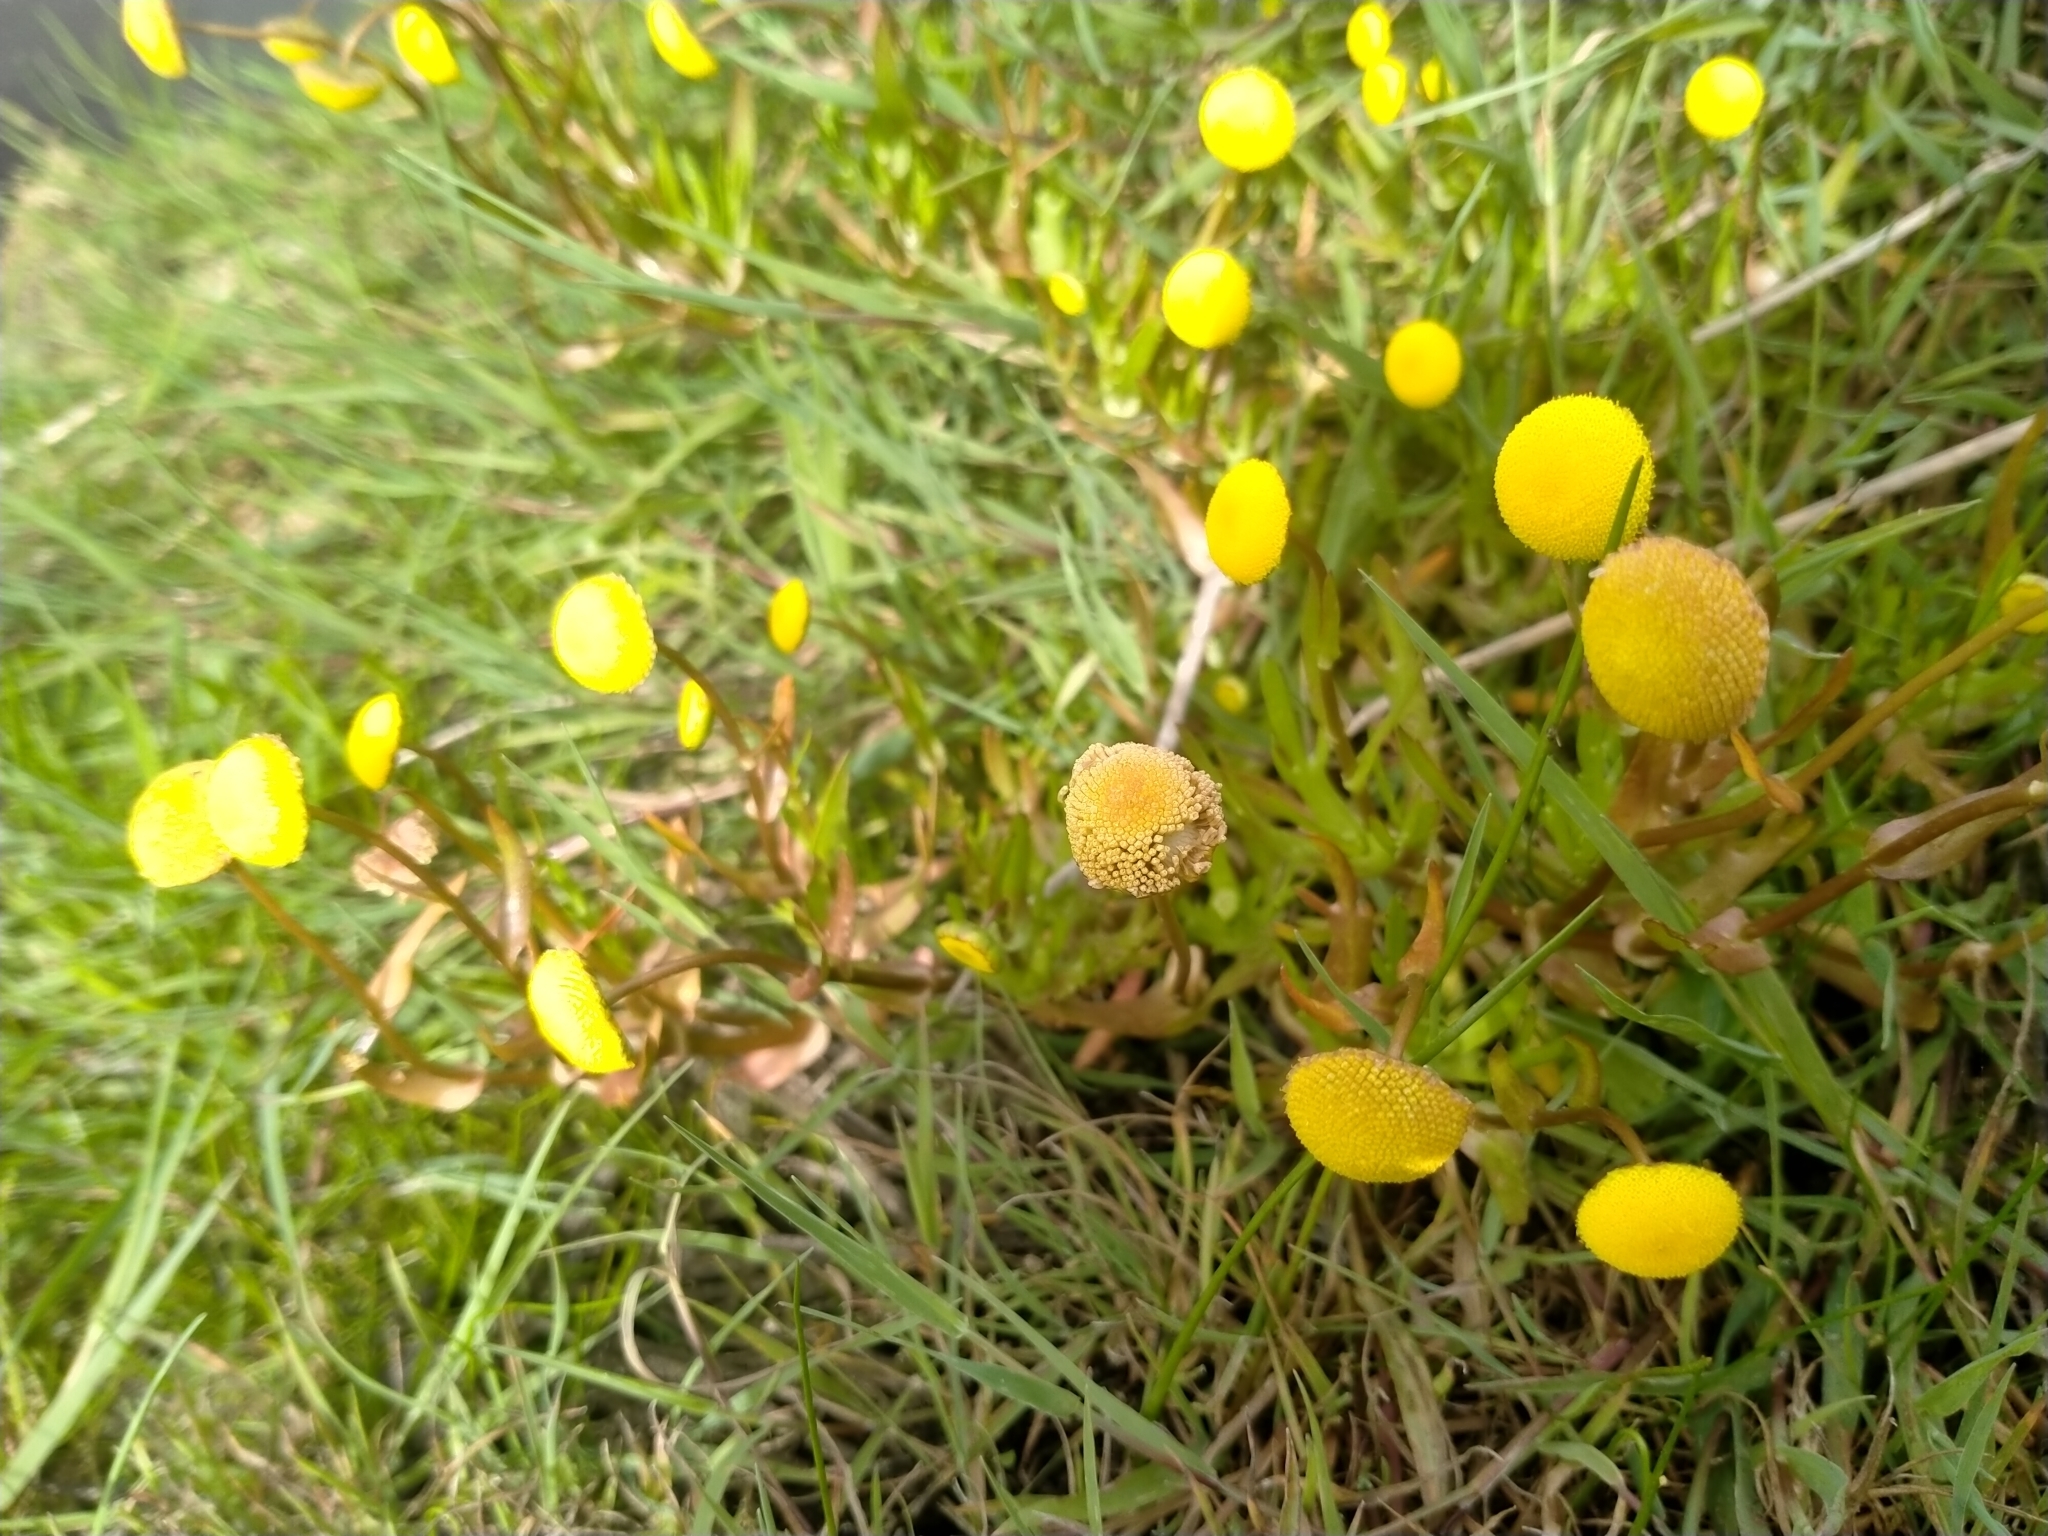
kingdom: Plantae
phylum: Tracheophyta
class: Magnoliopsida
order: Asterales
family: Asteraceae
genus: Cotula
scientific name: Cotula coronopifolia
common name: Buttonweed
